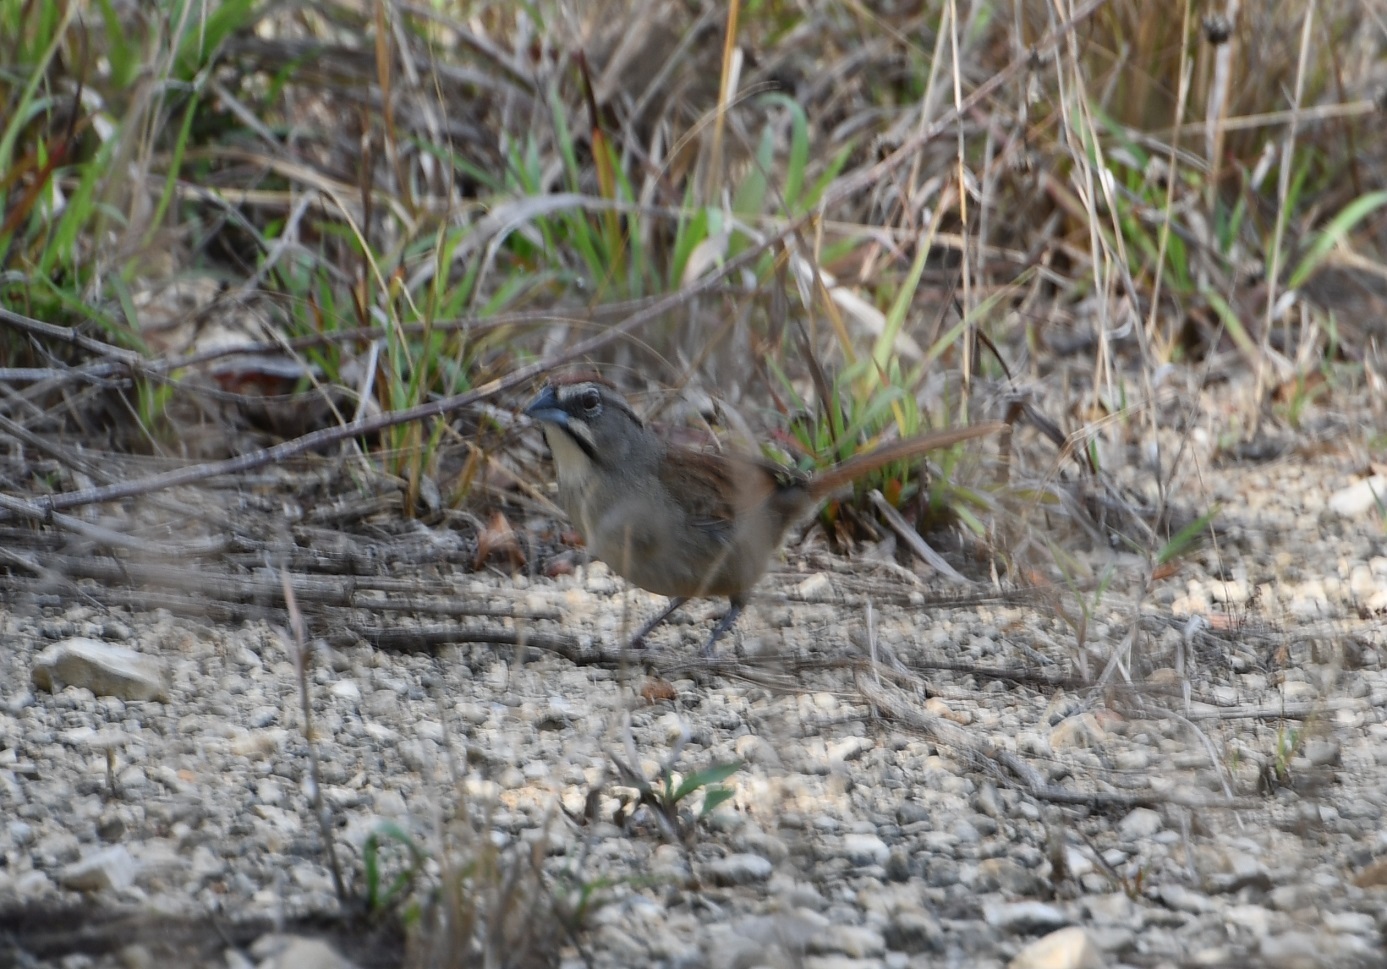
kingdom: Animalia
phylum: Chordata
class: Aves
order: Passeriformes
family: Passerellidae
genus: Aimophila
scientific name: Aimophila rufescens
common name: Rusty sparrow
